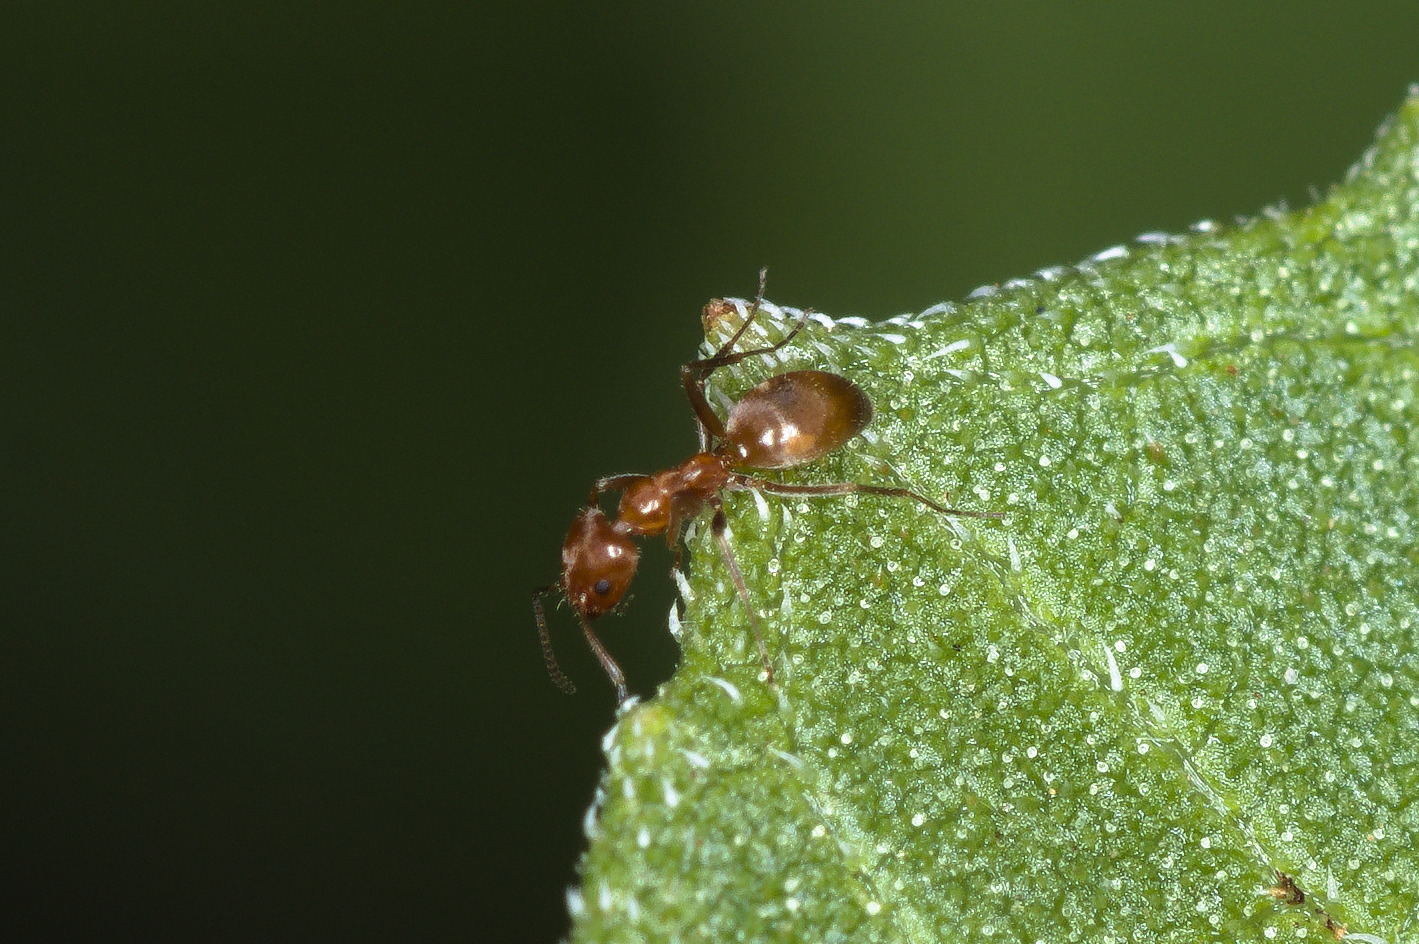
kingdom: Animalia
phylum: Arthropoda
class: Insecta
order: Hymenoptera
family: Formicidae
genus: Forelius
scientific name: Forelius mccooki
